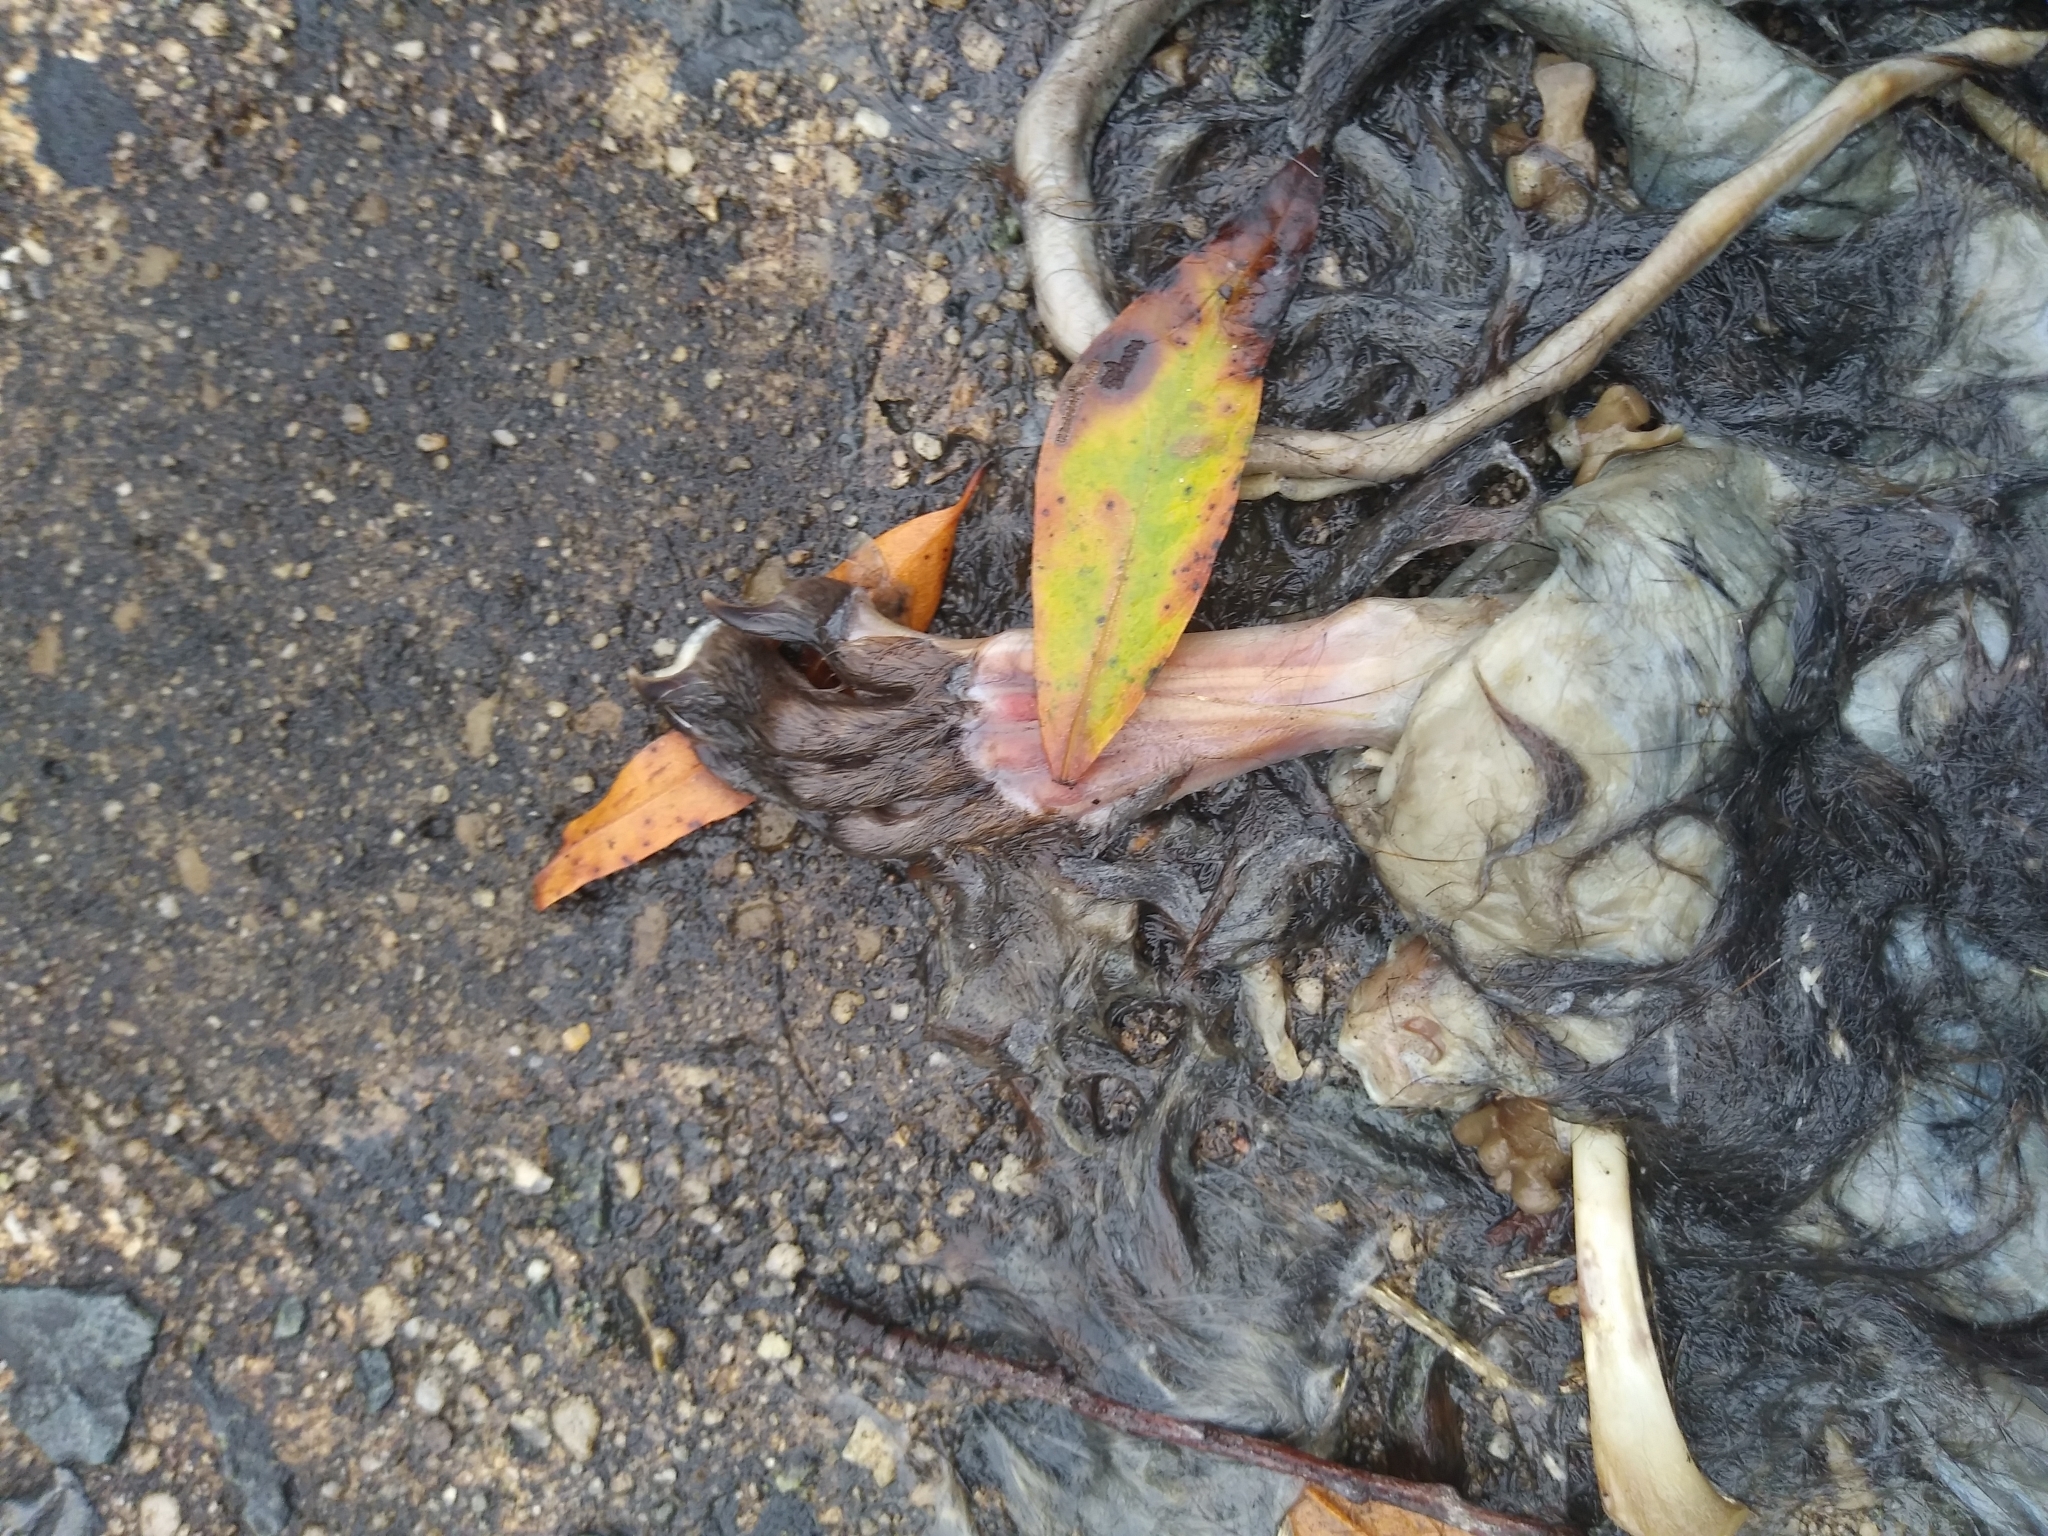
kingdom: Animalia
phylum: Chordata
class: Mammalia
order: Didelphimorphia
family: Didelphidae
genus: Didelphis
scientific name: Didelphis virginiana
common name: Virginia opossum
